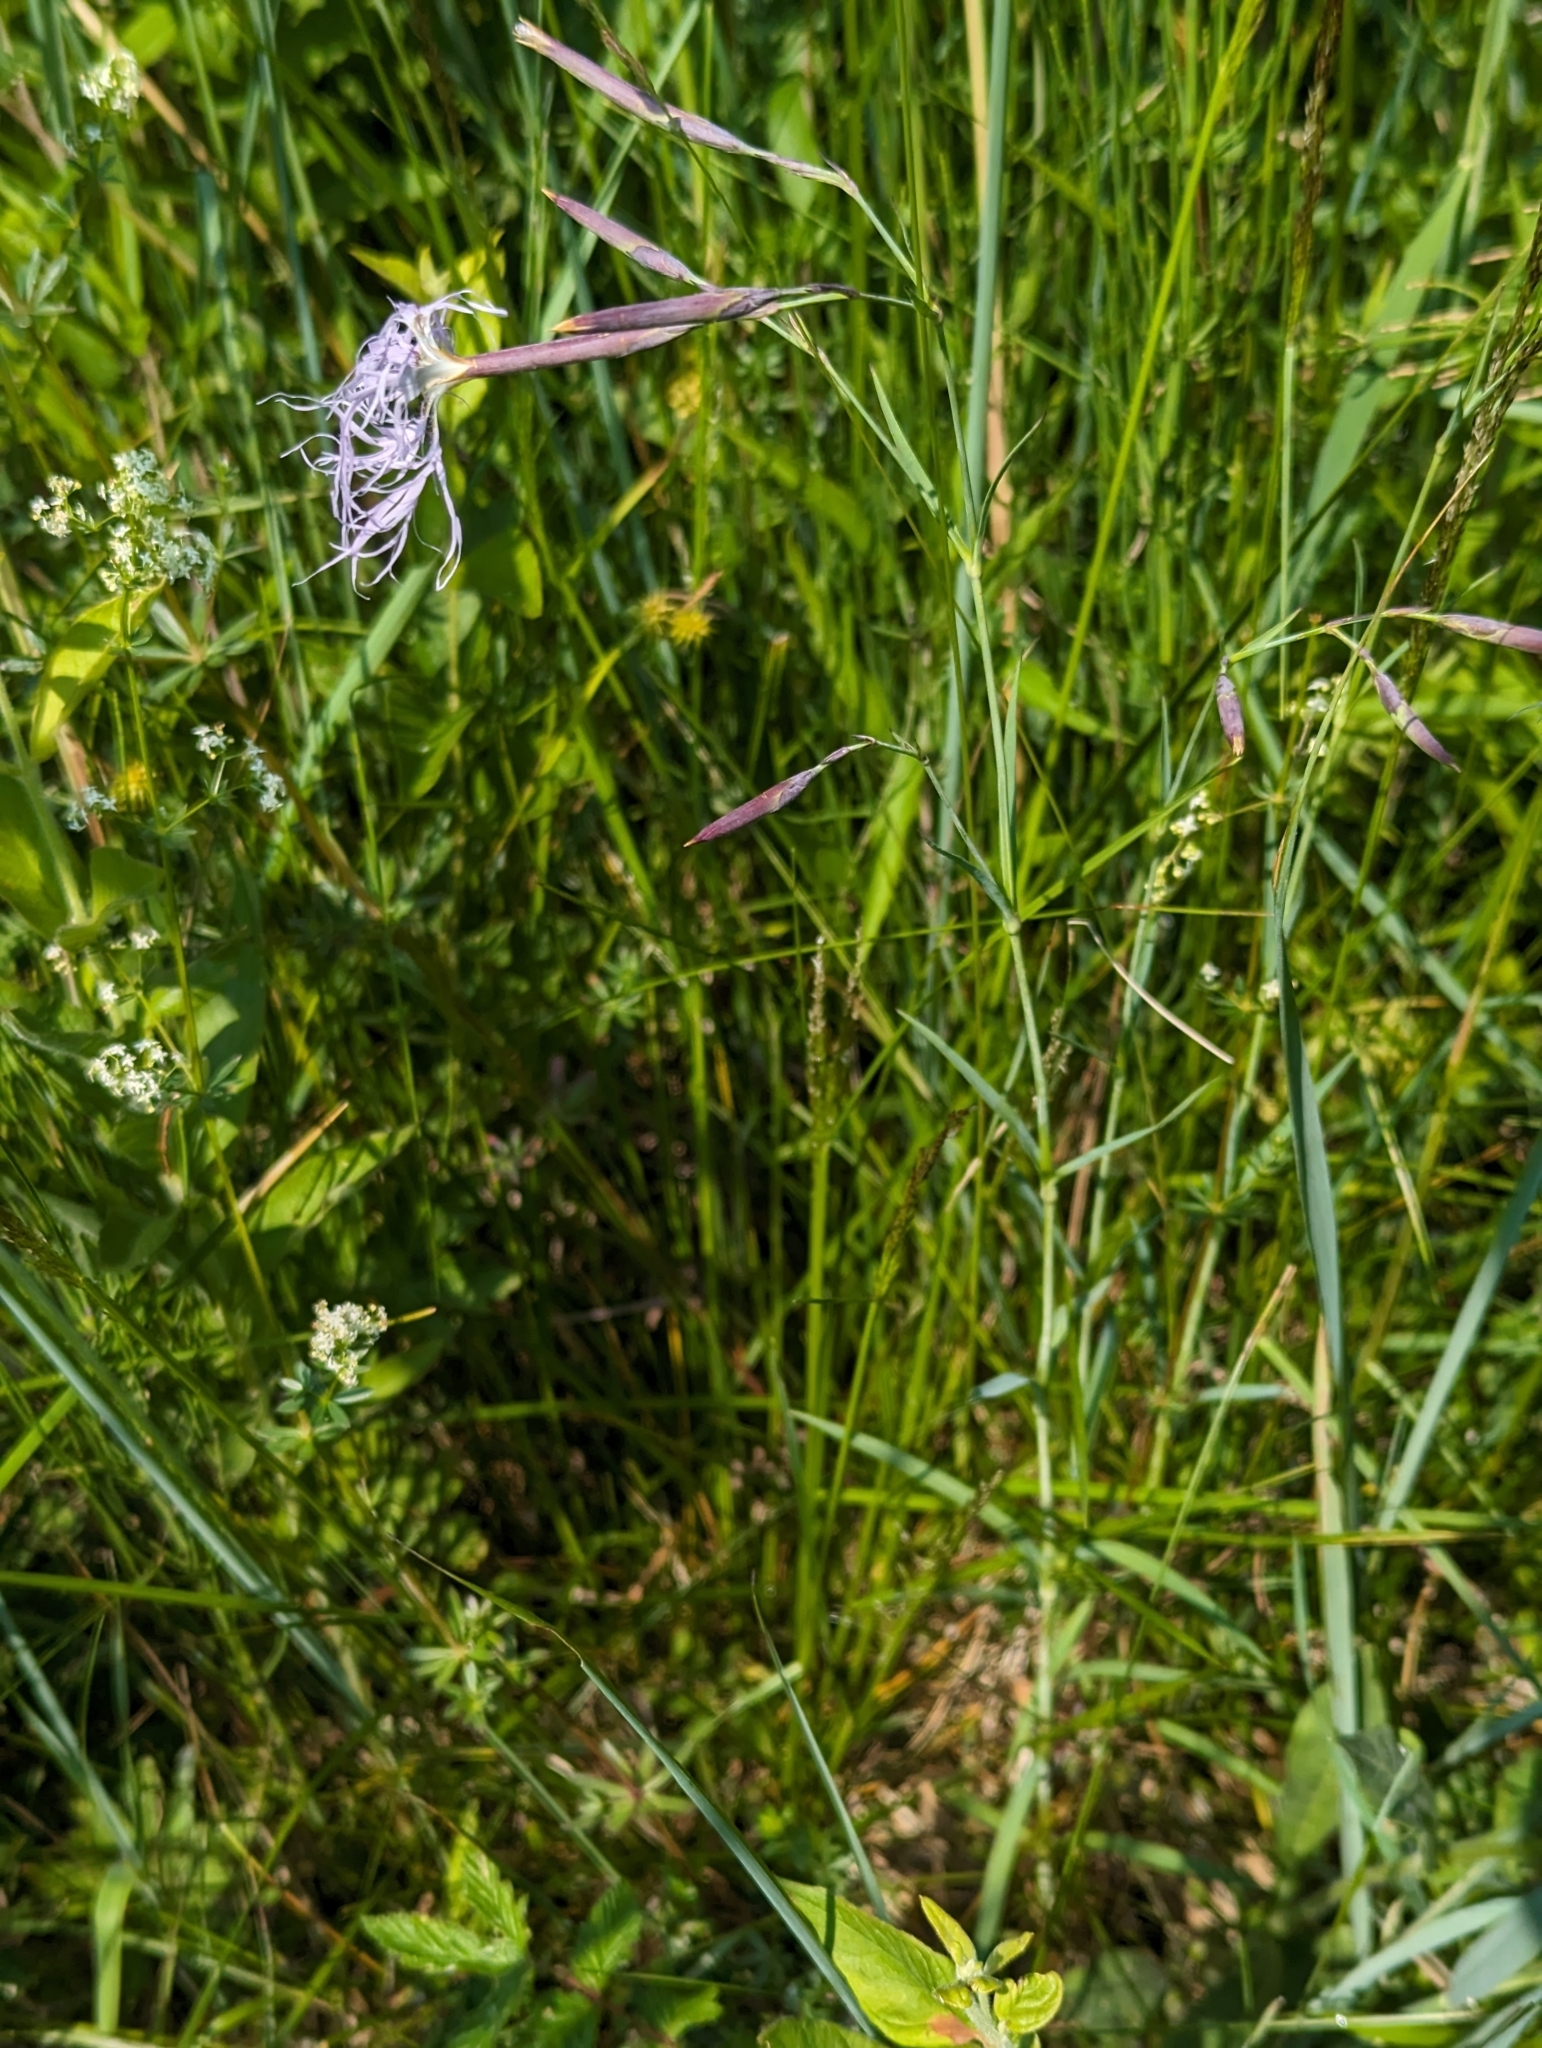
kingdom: Plantae
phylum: Tracheophyta
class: Magnoliopsida
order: Caryophyllales
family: Caryophyllaceae
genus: Dianthus
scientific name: Dianthus superbus
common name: Fringed pink
